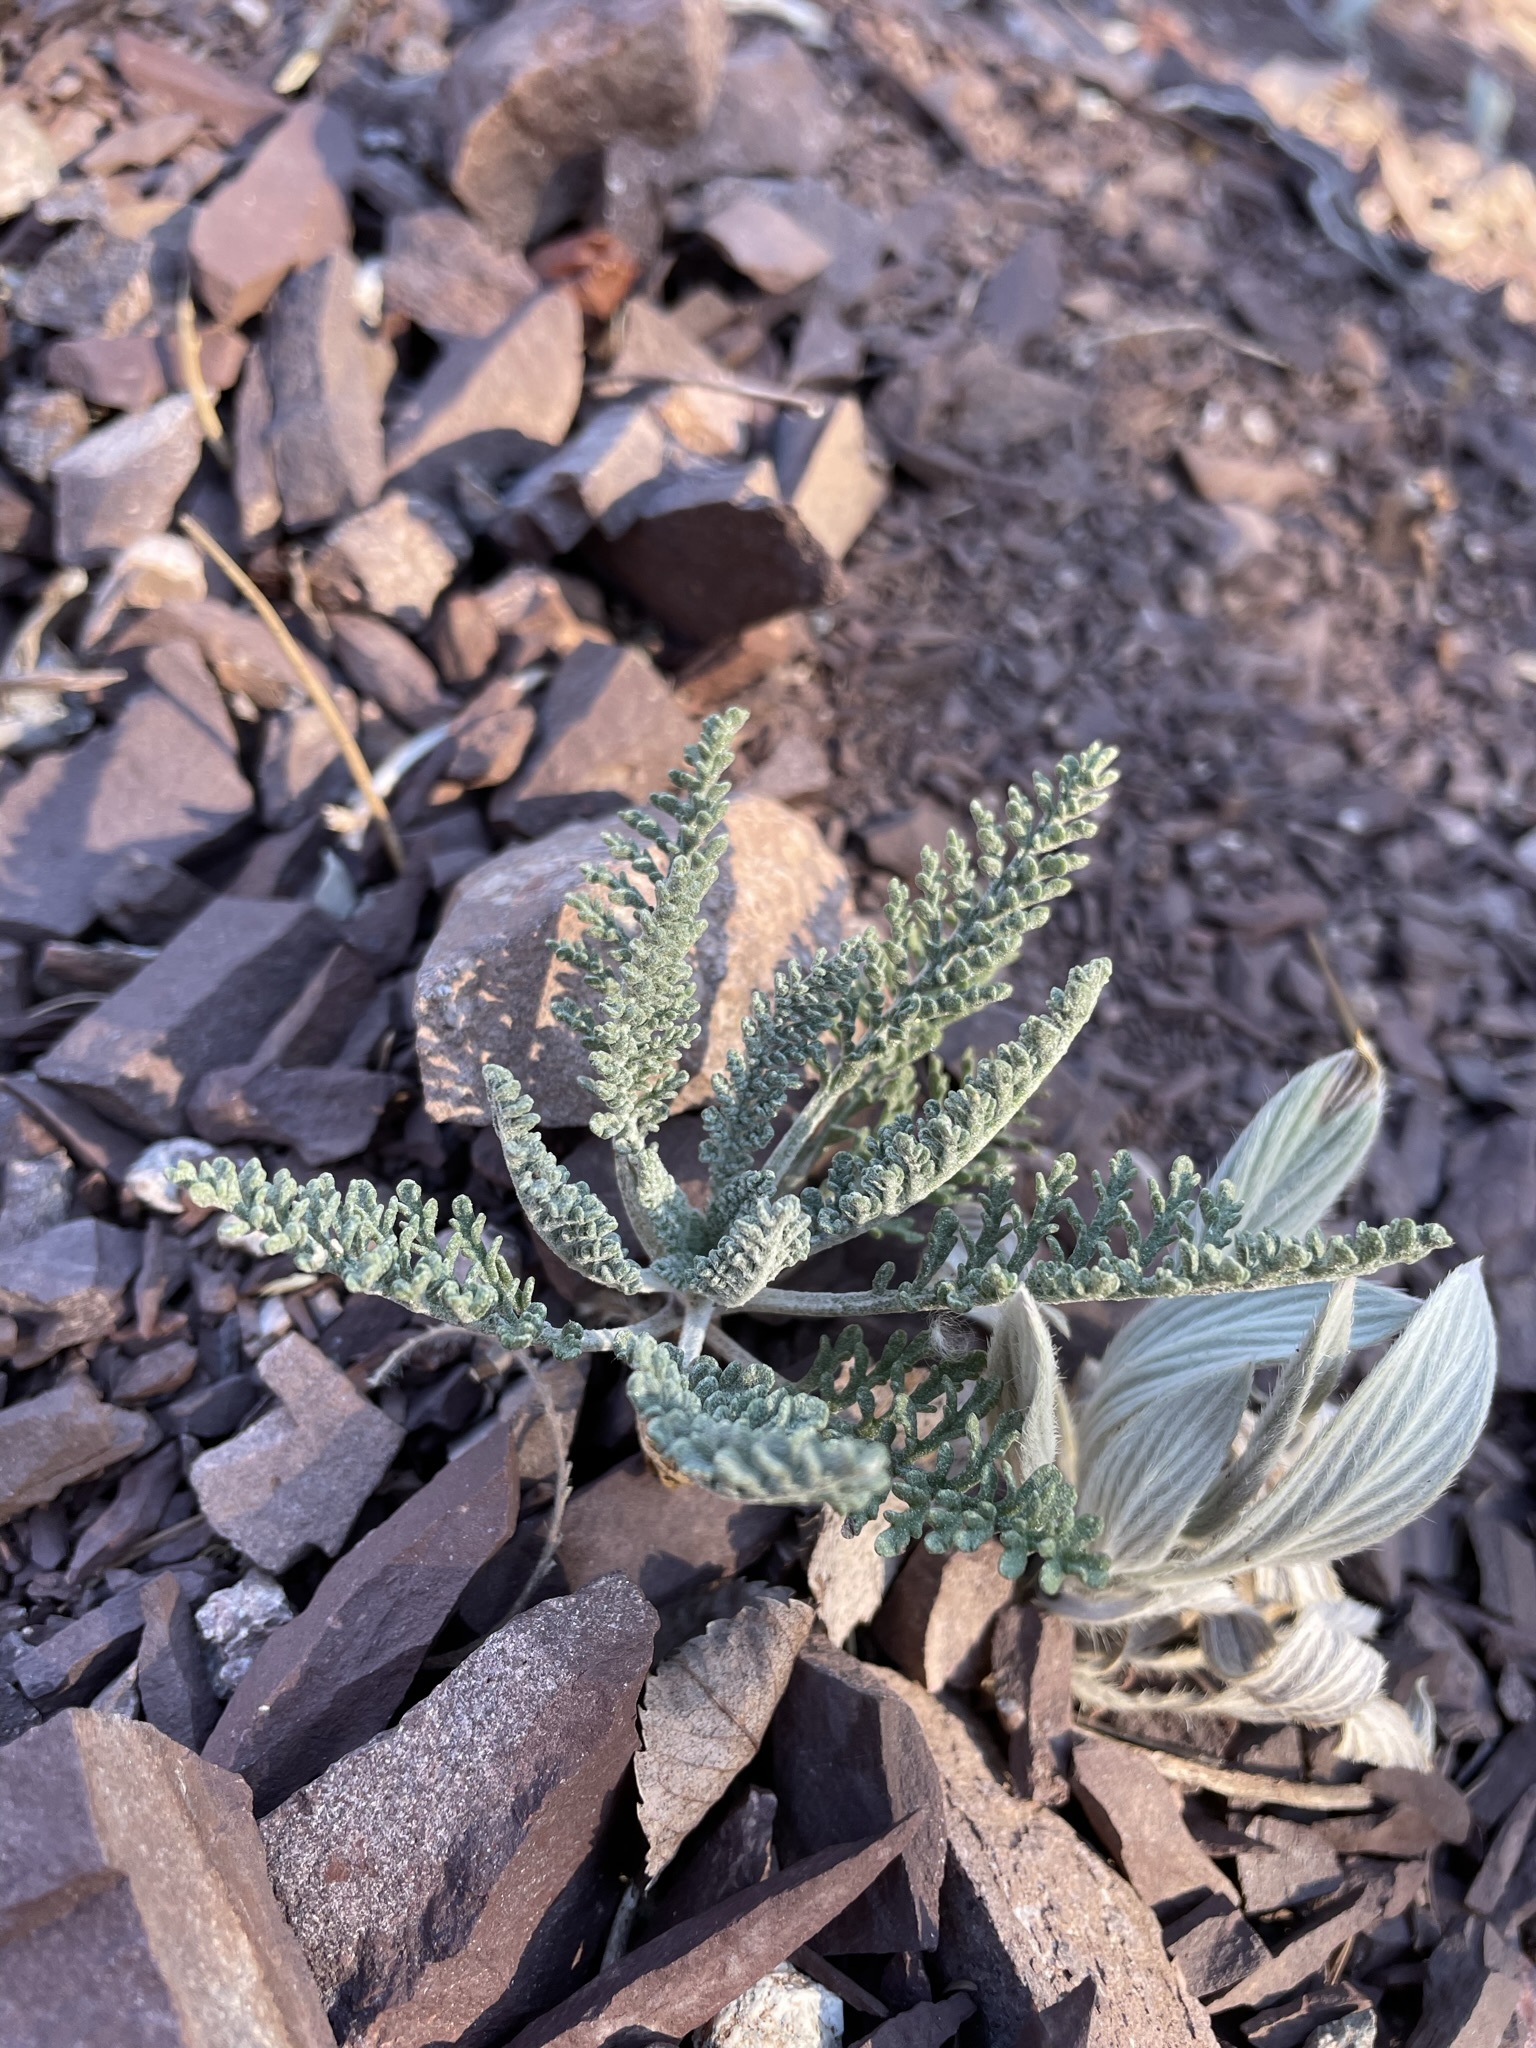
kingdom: Plantae
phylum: Tracheophyta
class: Magnoliopsida
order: Asterales
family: Asteraceae
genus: Chaenactis
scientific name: Chaenactis douglasii
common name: Hoary pincushion
